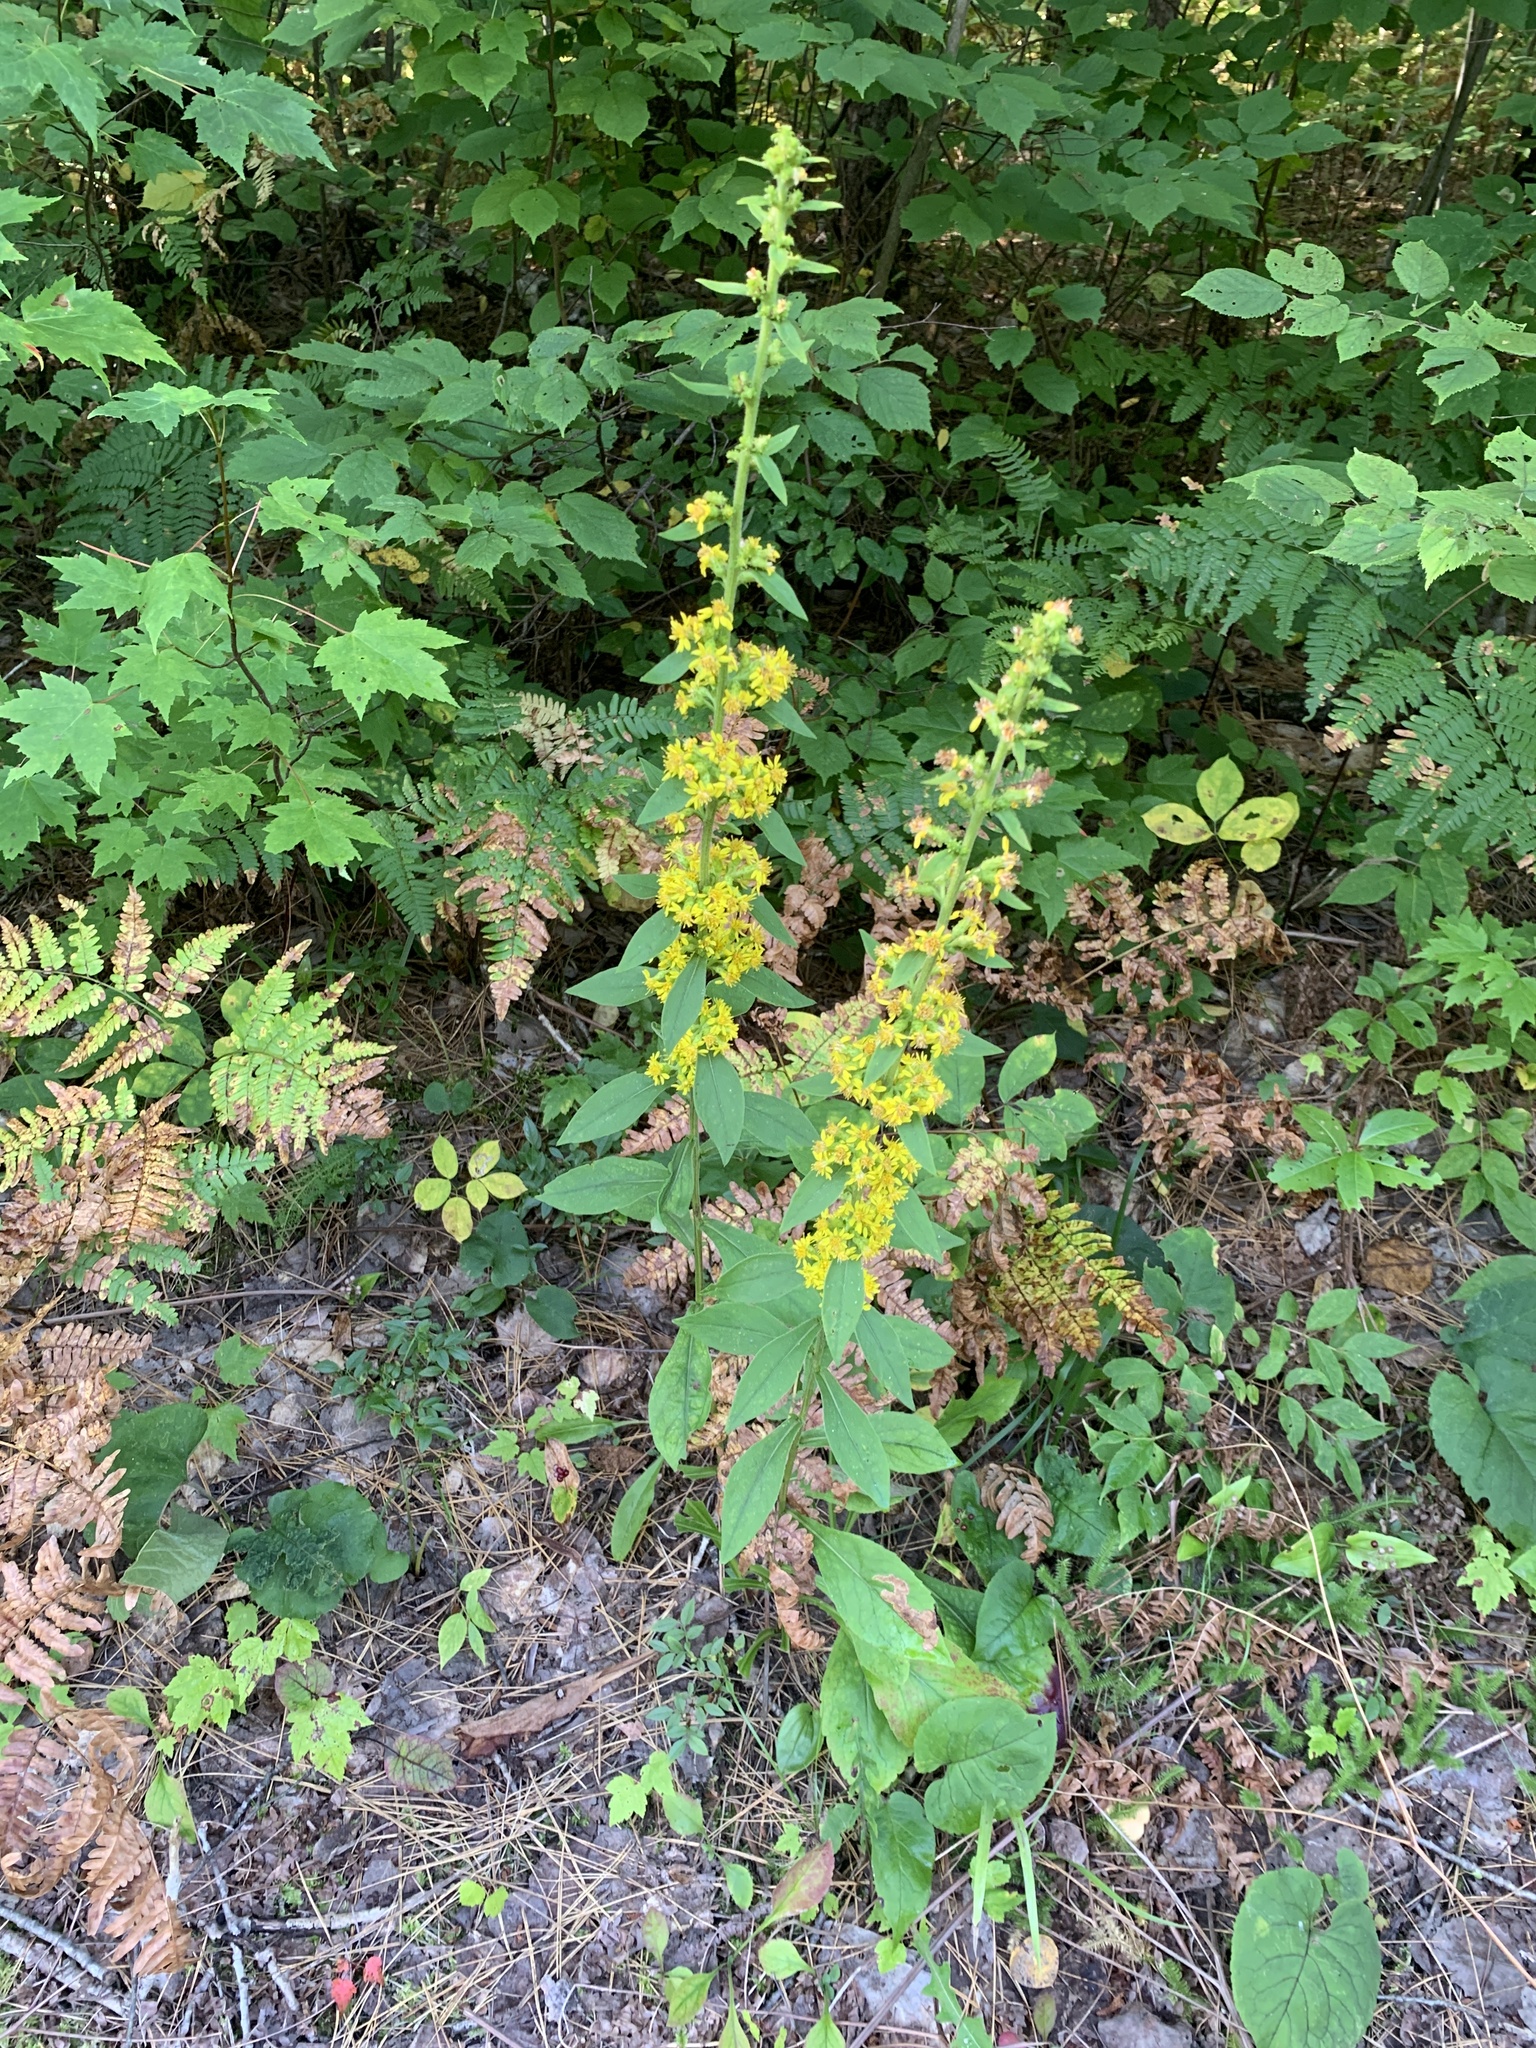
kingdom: Plantae
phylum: Tracheophyta
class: Magnoliopsida
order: Asterales
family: Asteraceae
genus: Solidago
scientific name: Solidago squarrosa
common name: Stout goldenrod
